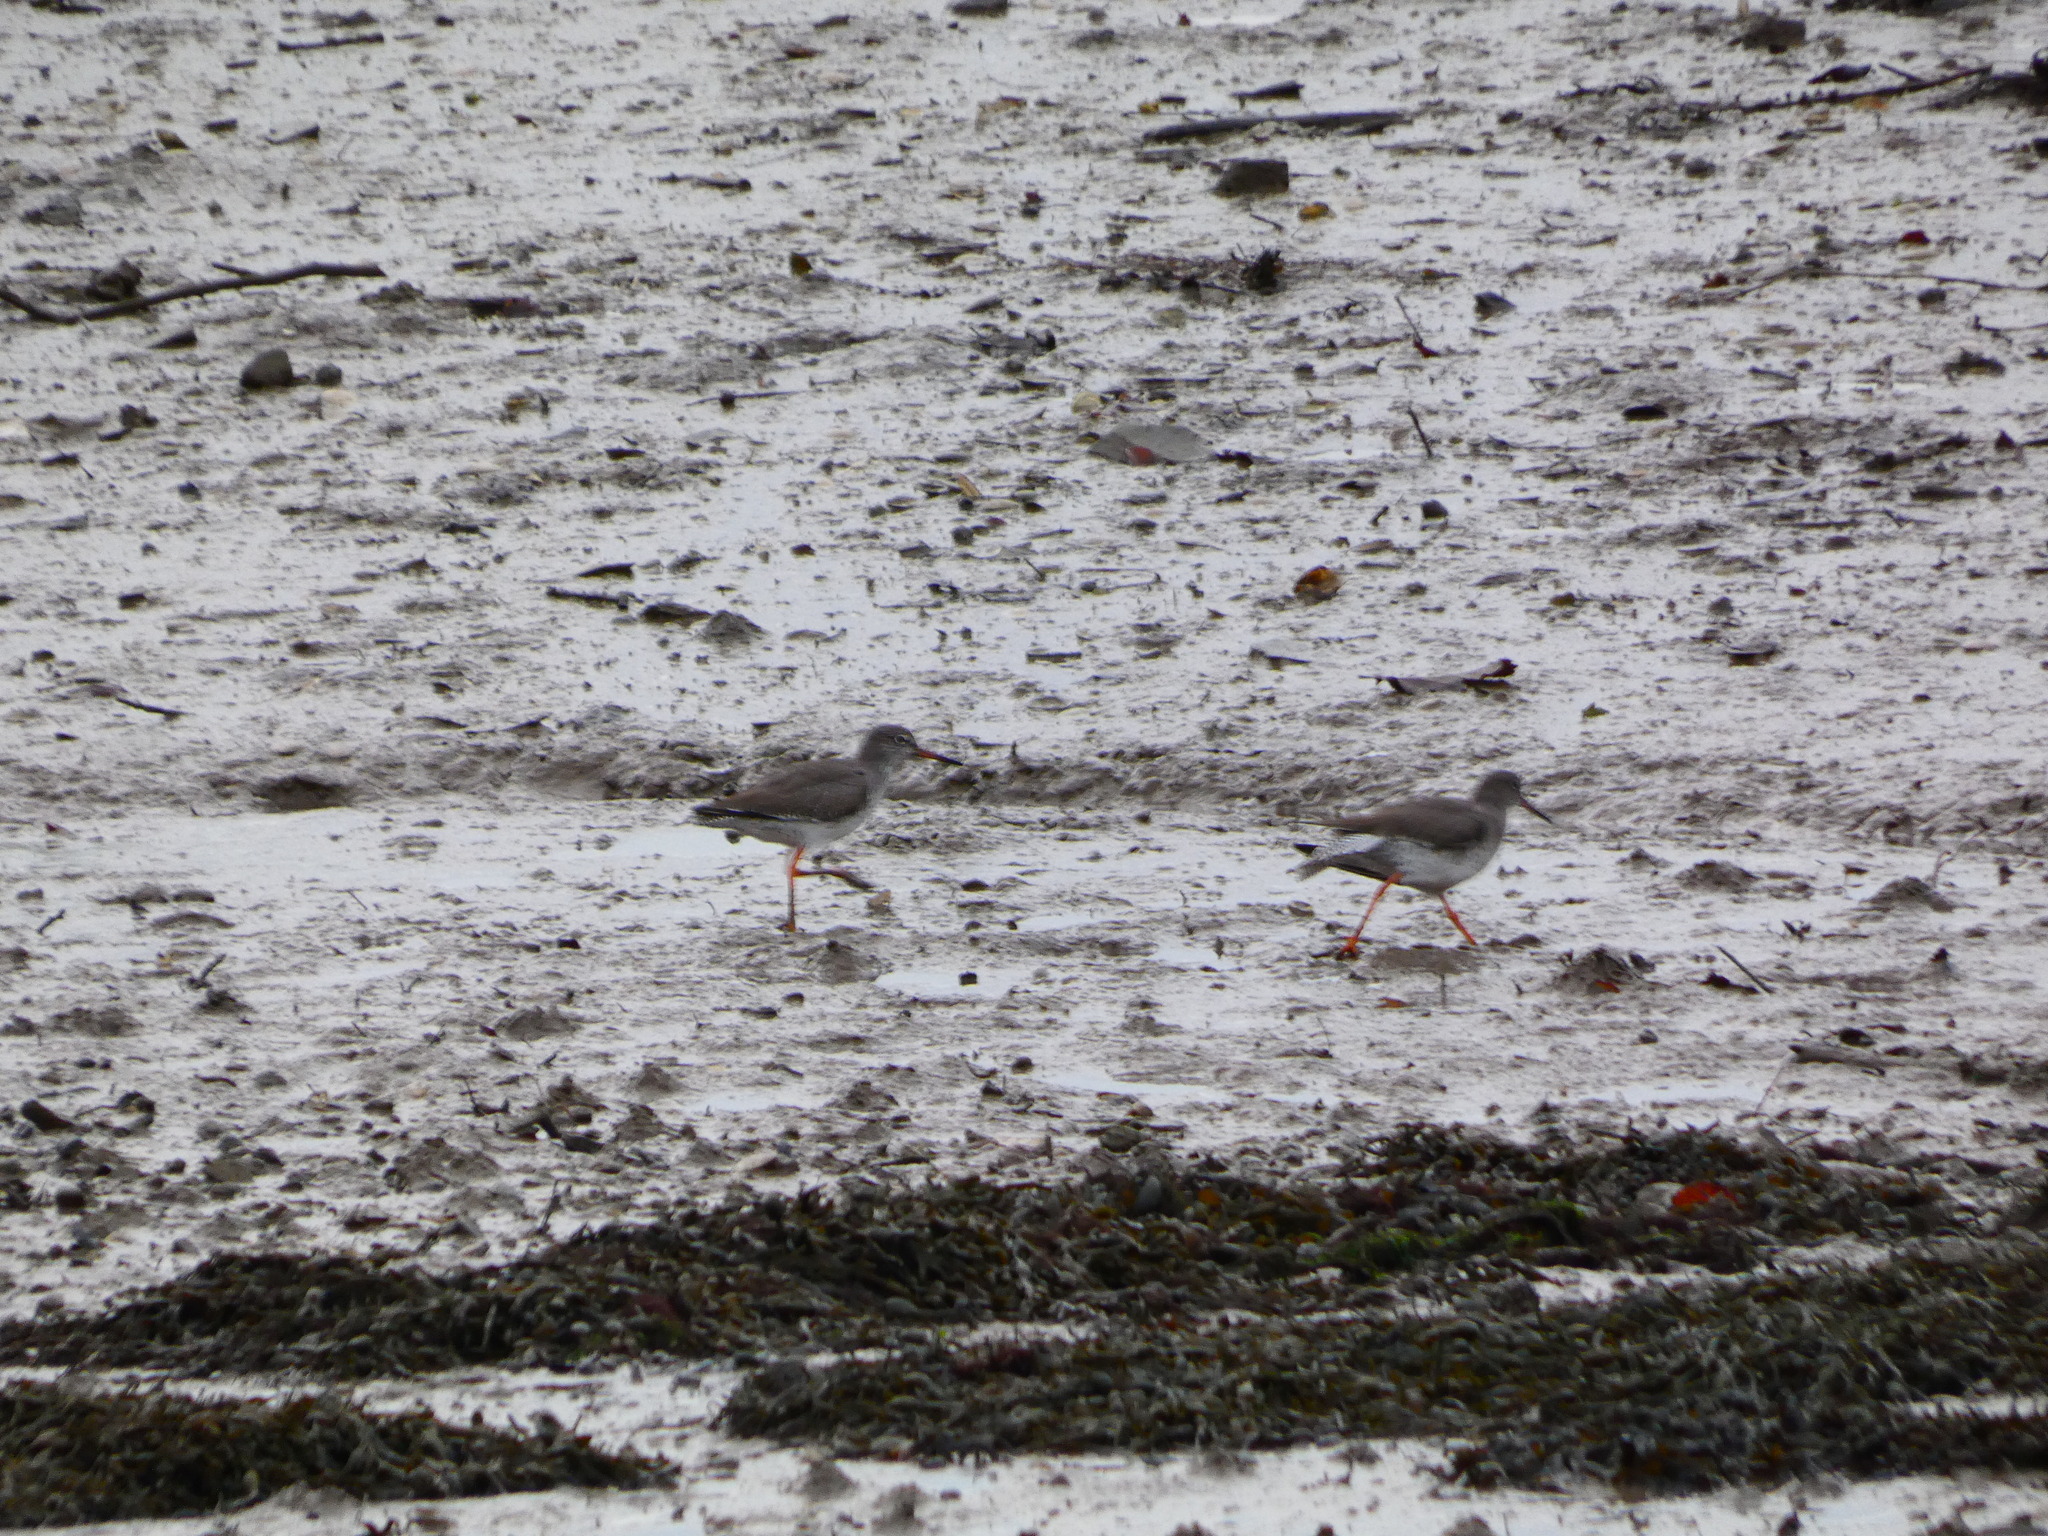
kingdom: Animalia
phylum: Chordata
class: Aves
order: Charadriiformes
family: Scolopacidae
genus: Tringa
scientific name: Tringa totanus
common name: Common redshank
